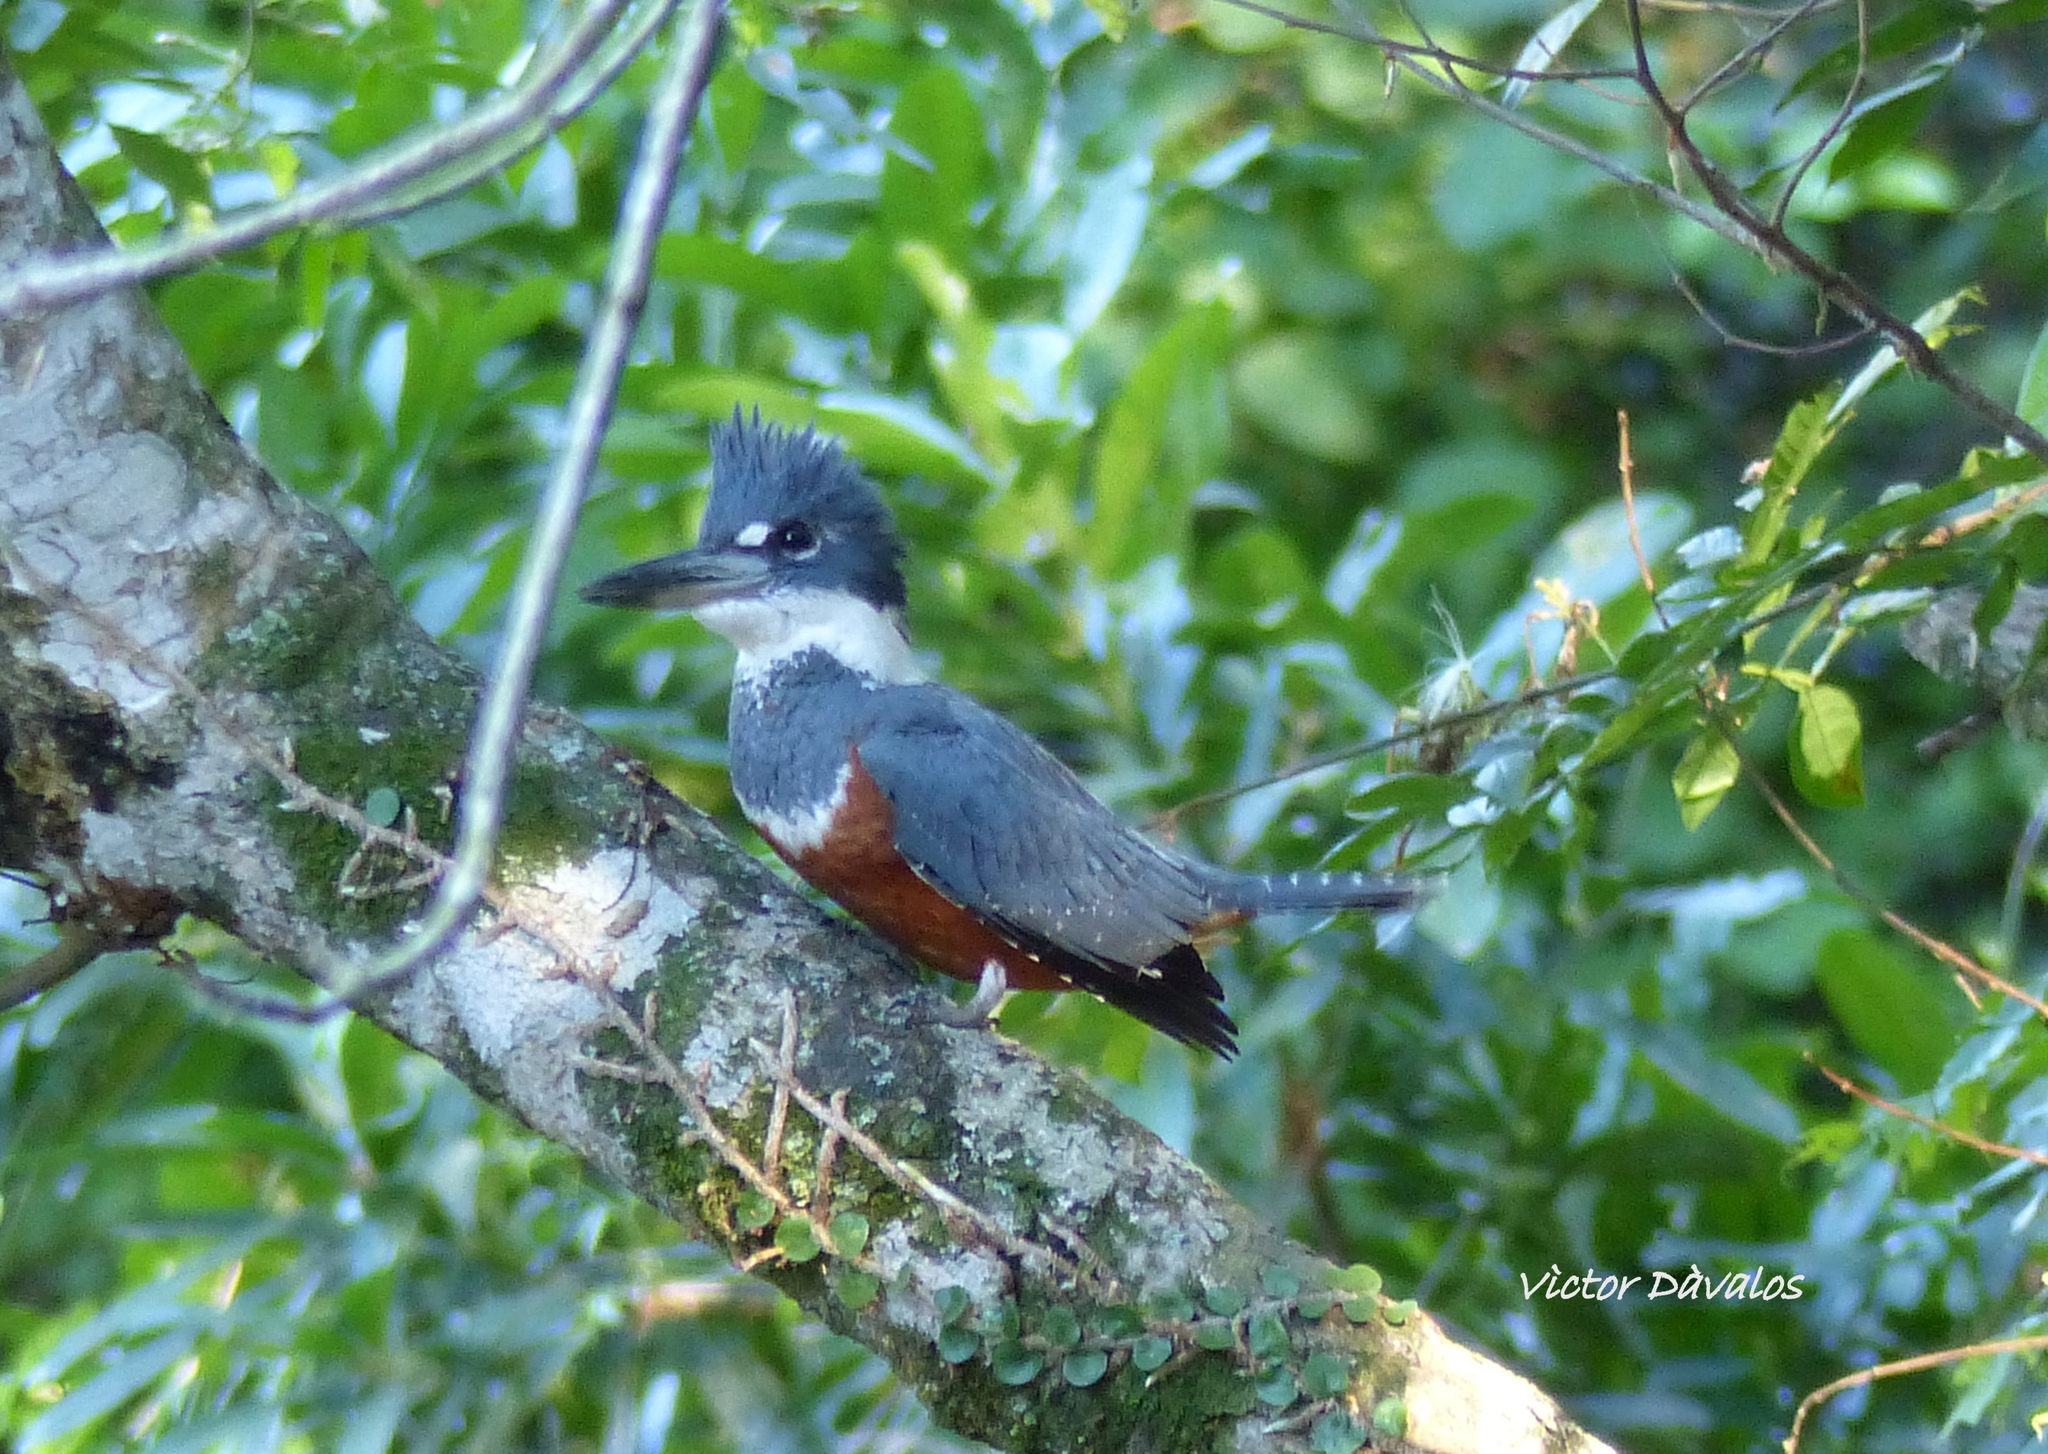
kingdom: Animalia
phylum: Chordata
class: Aves
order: Coraciiformes
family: Alcedinidae
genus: Megaceryle
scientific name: Megaceryle torquata
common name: Ringed kingfisher
